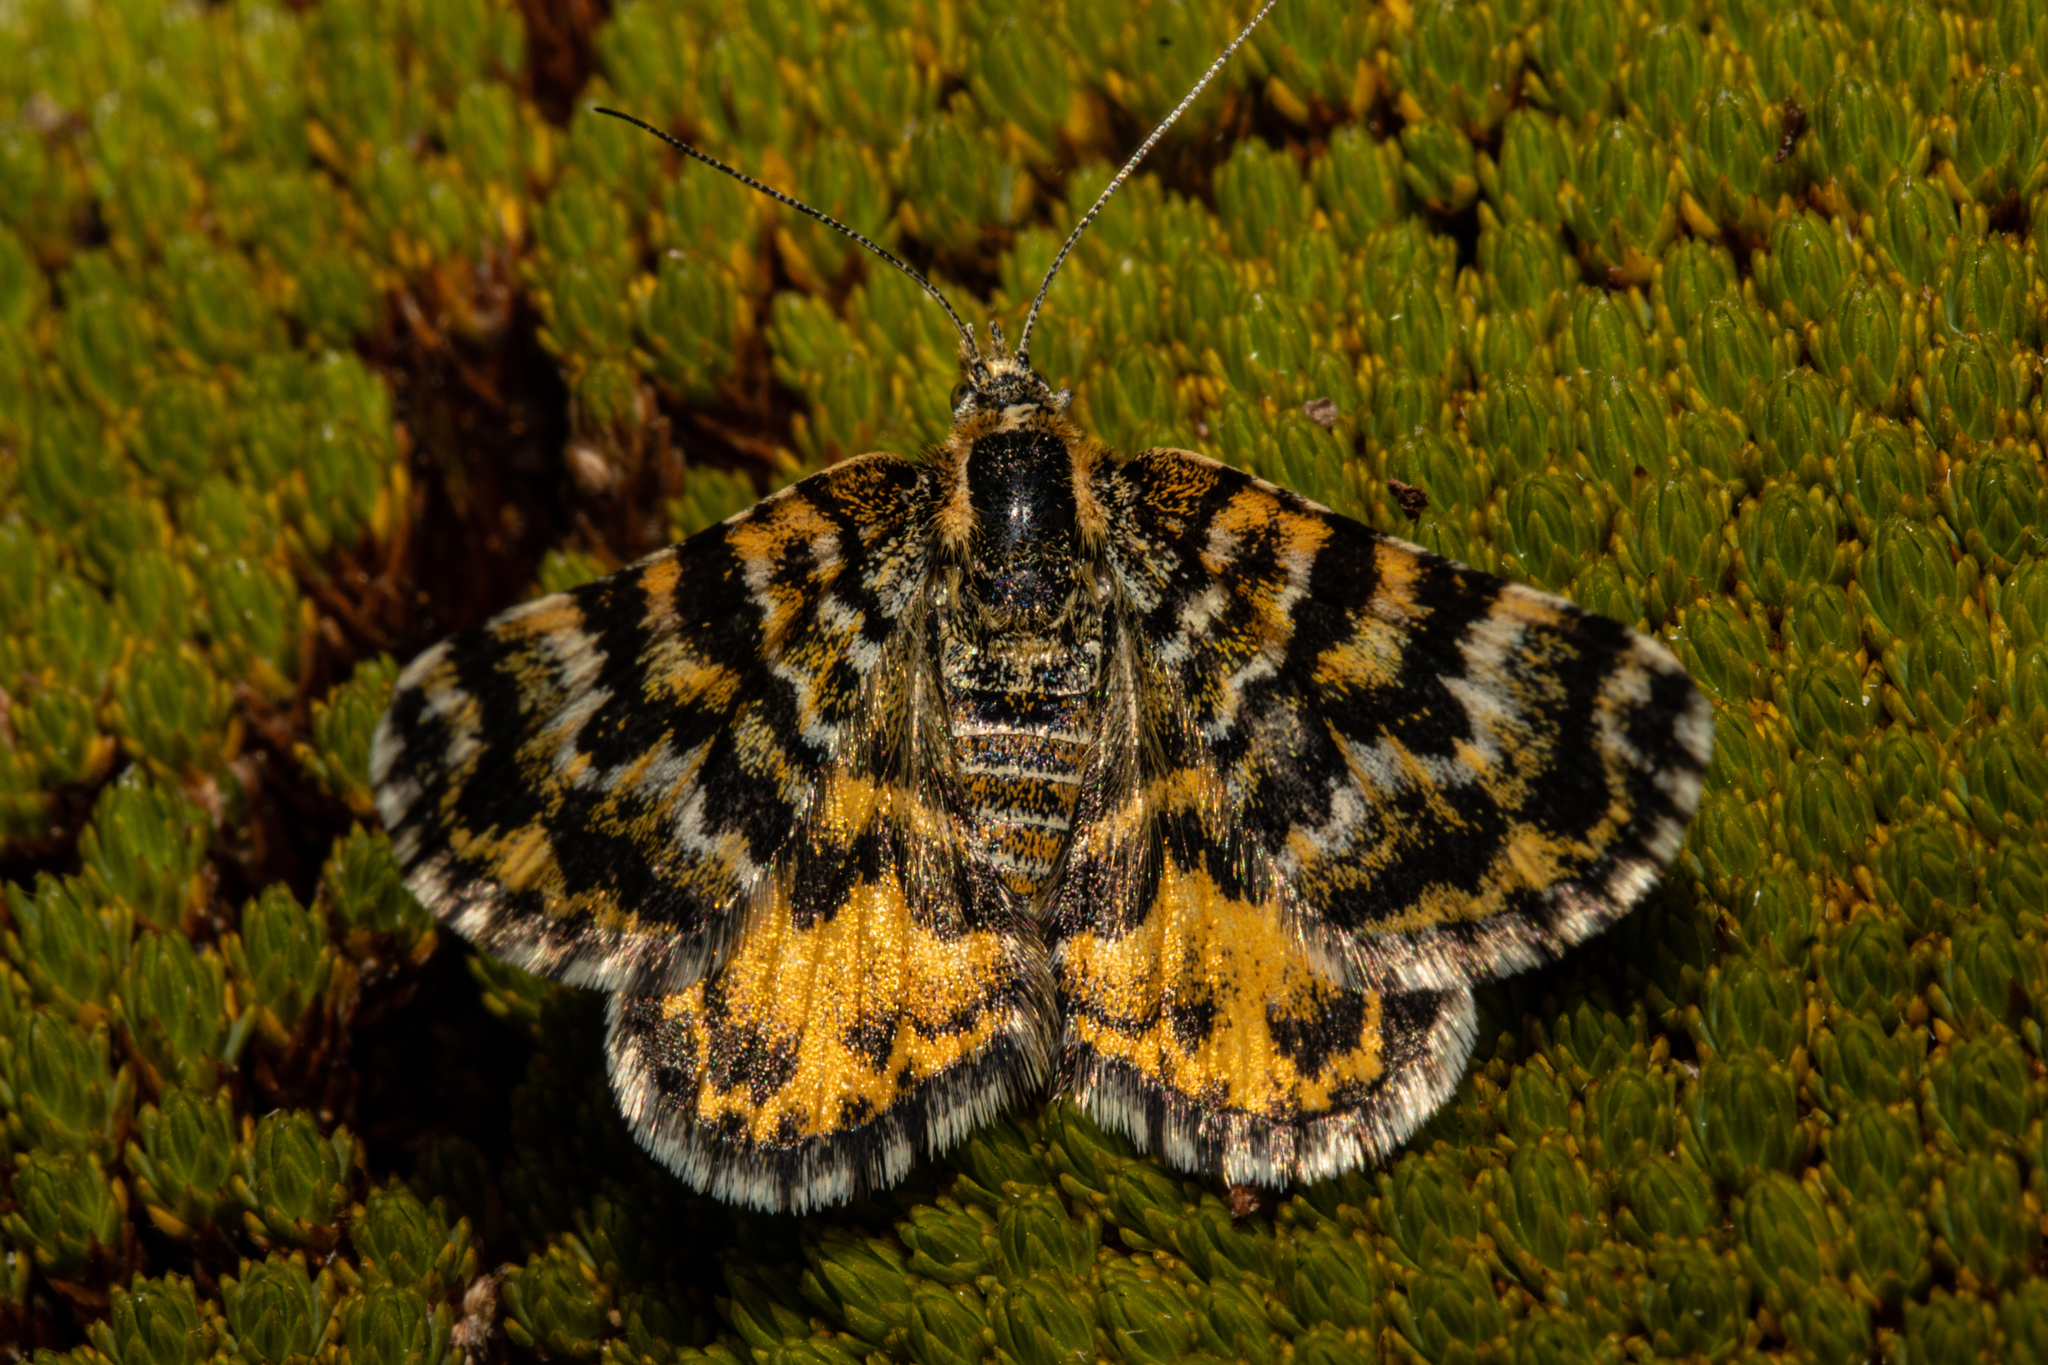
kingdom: Animalia
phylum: Arthropoda
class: Insecta
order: Lepidoptera
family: Geometridae
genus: Notoreas
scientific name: Notoreas
